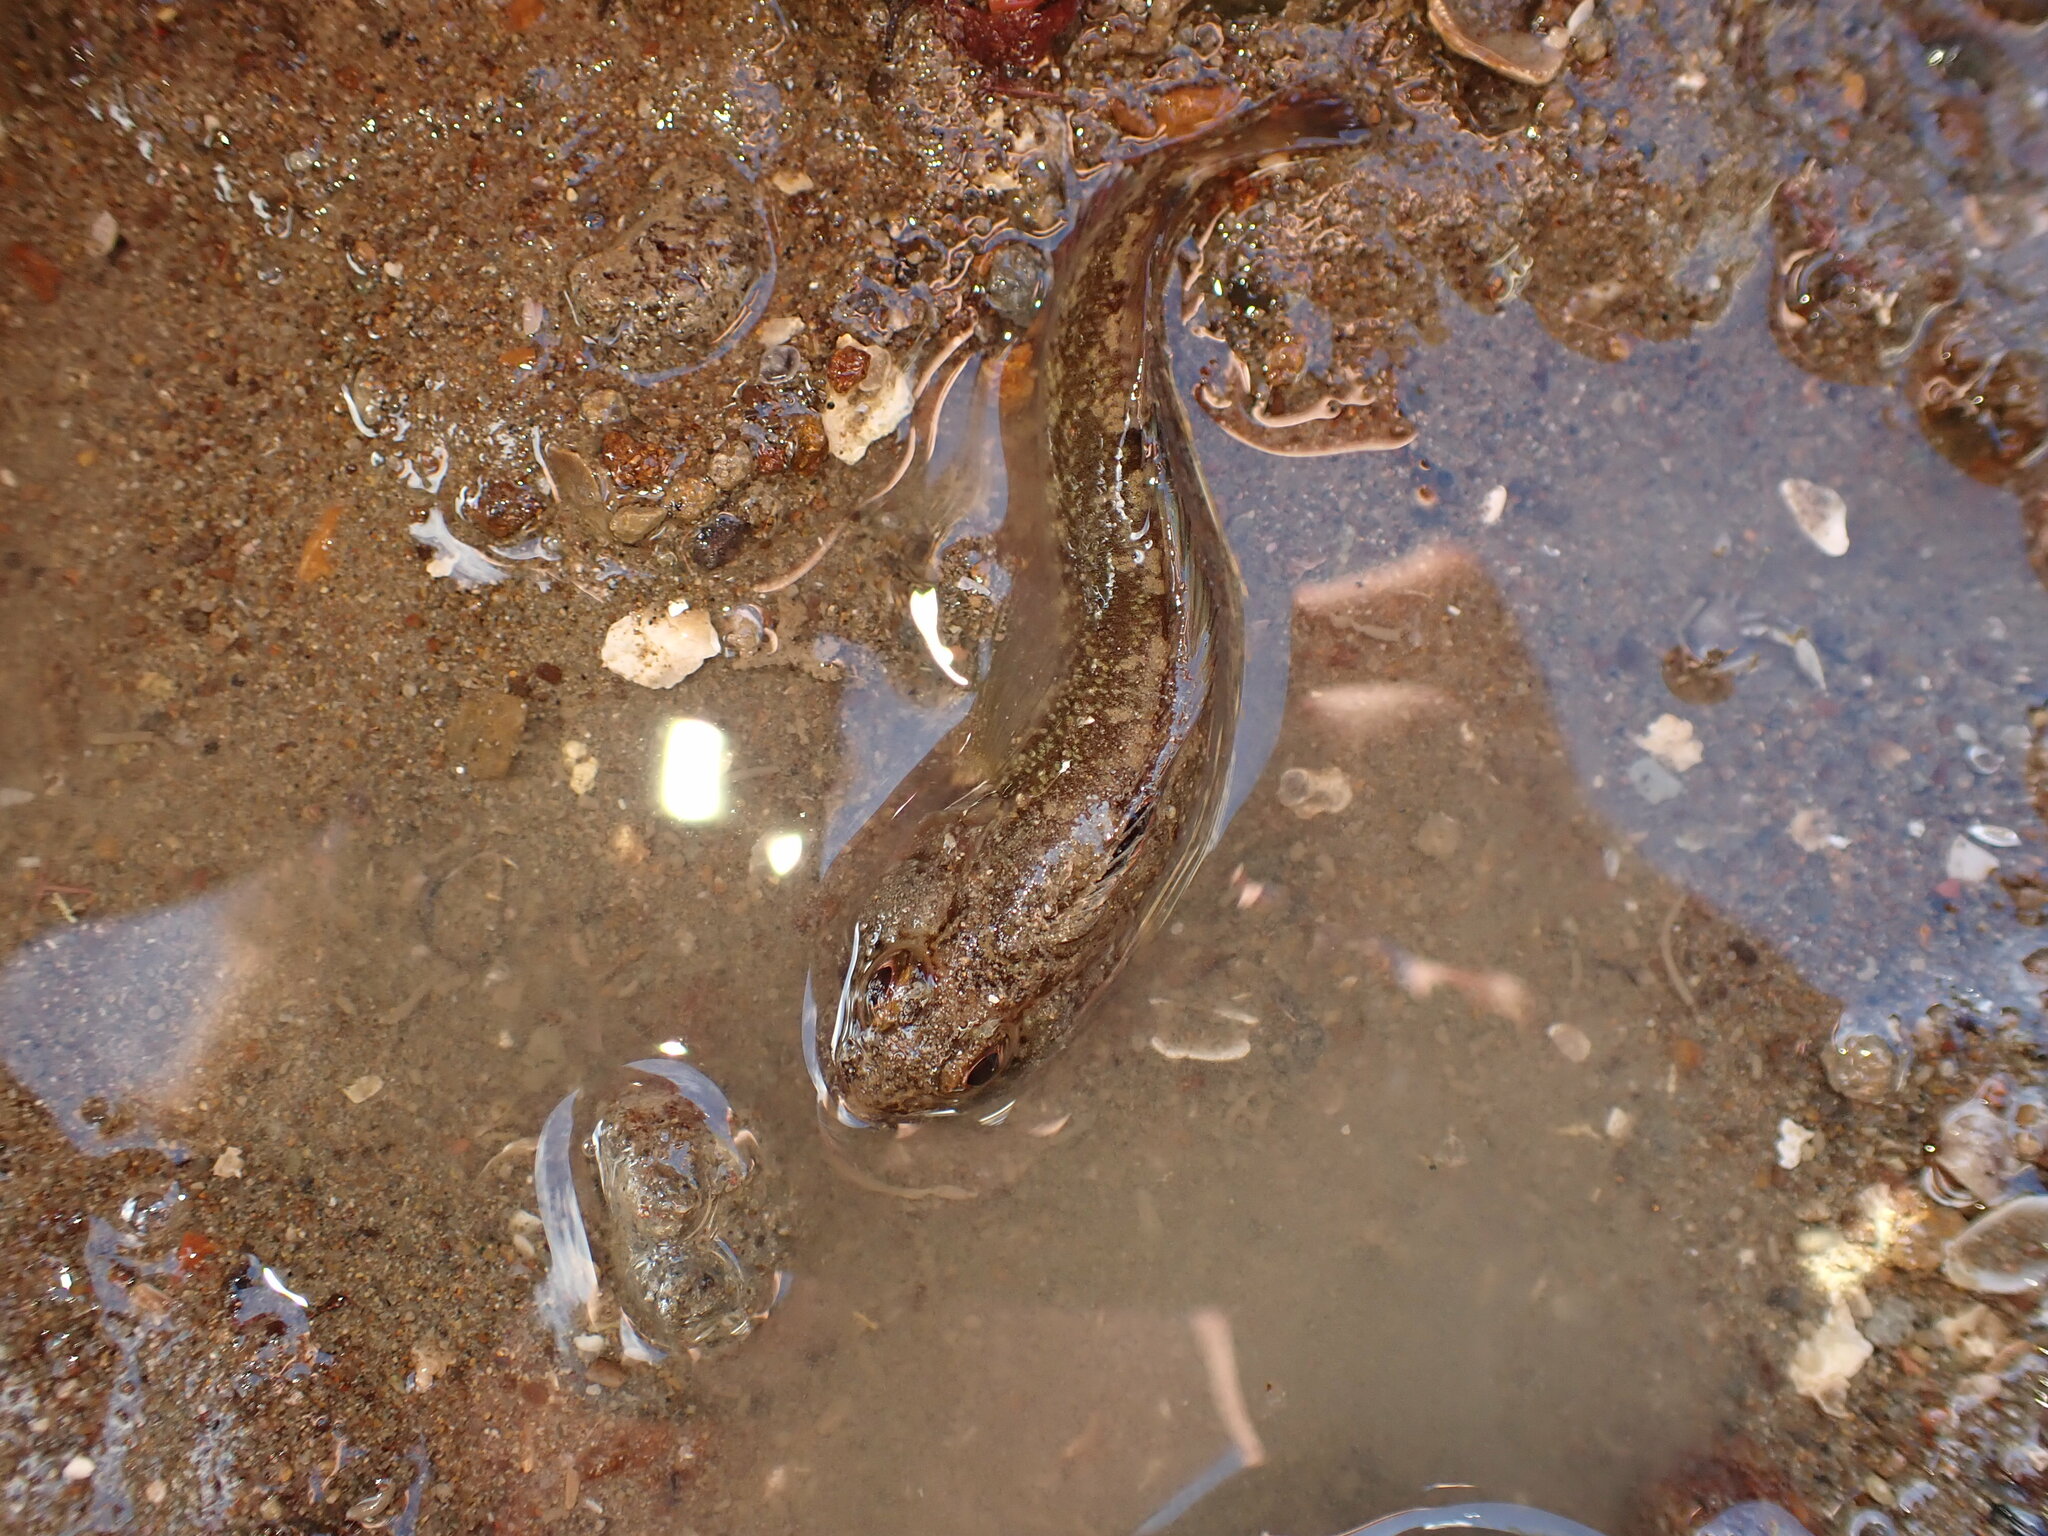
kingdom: Animalia
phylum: Chordata
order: Perciformes
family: Tripterygiidae
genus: Forsterygion
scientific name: Forsterygion
